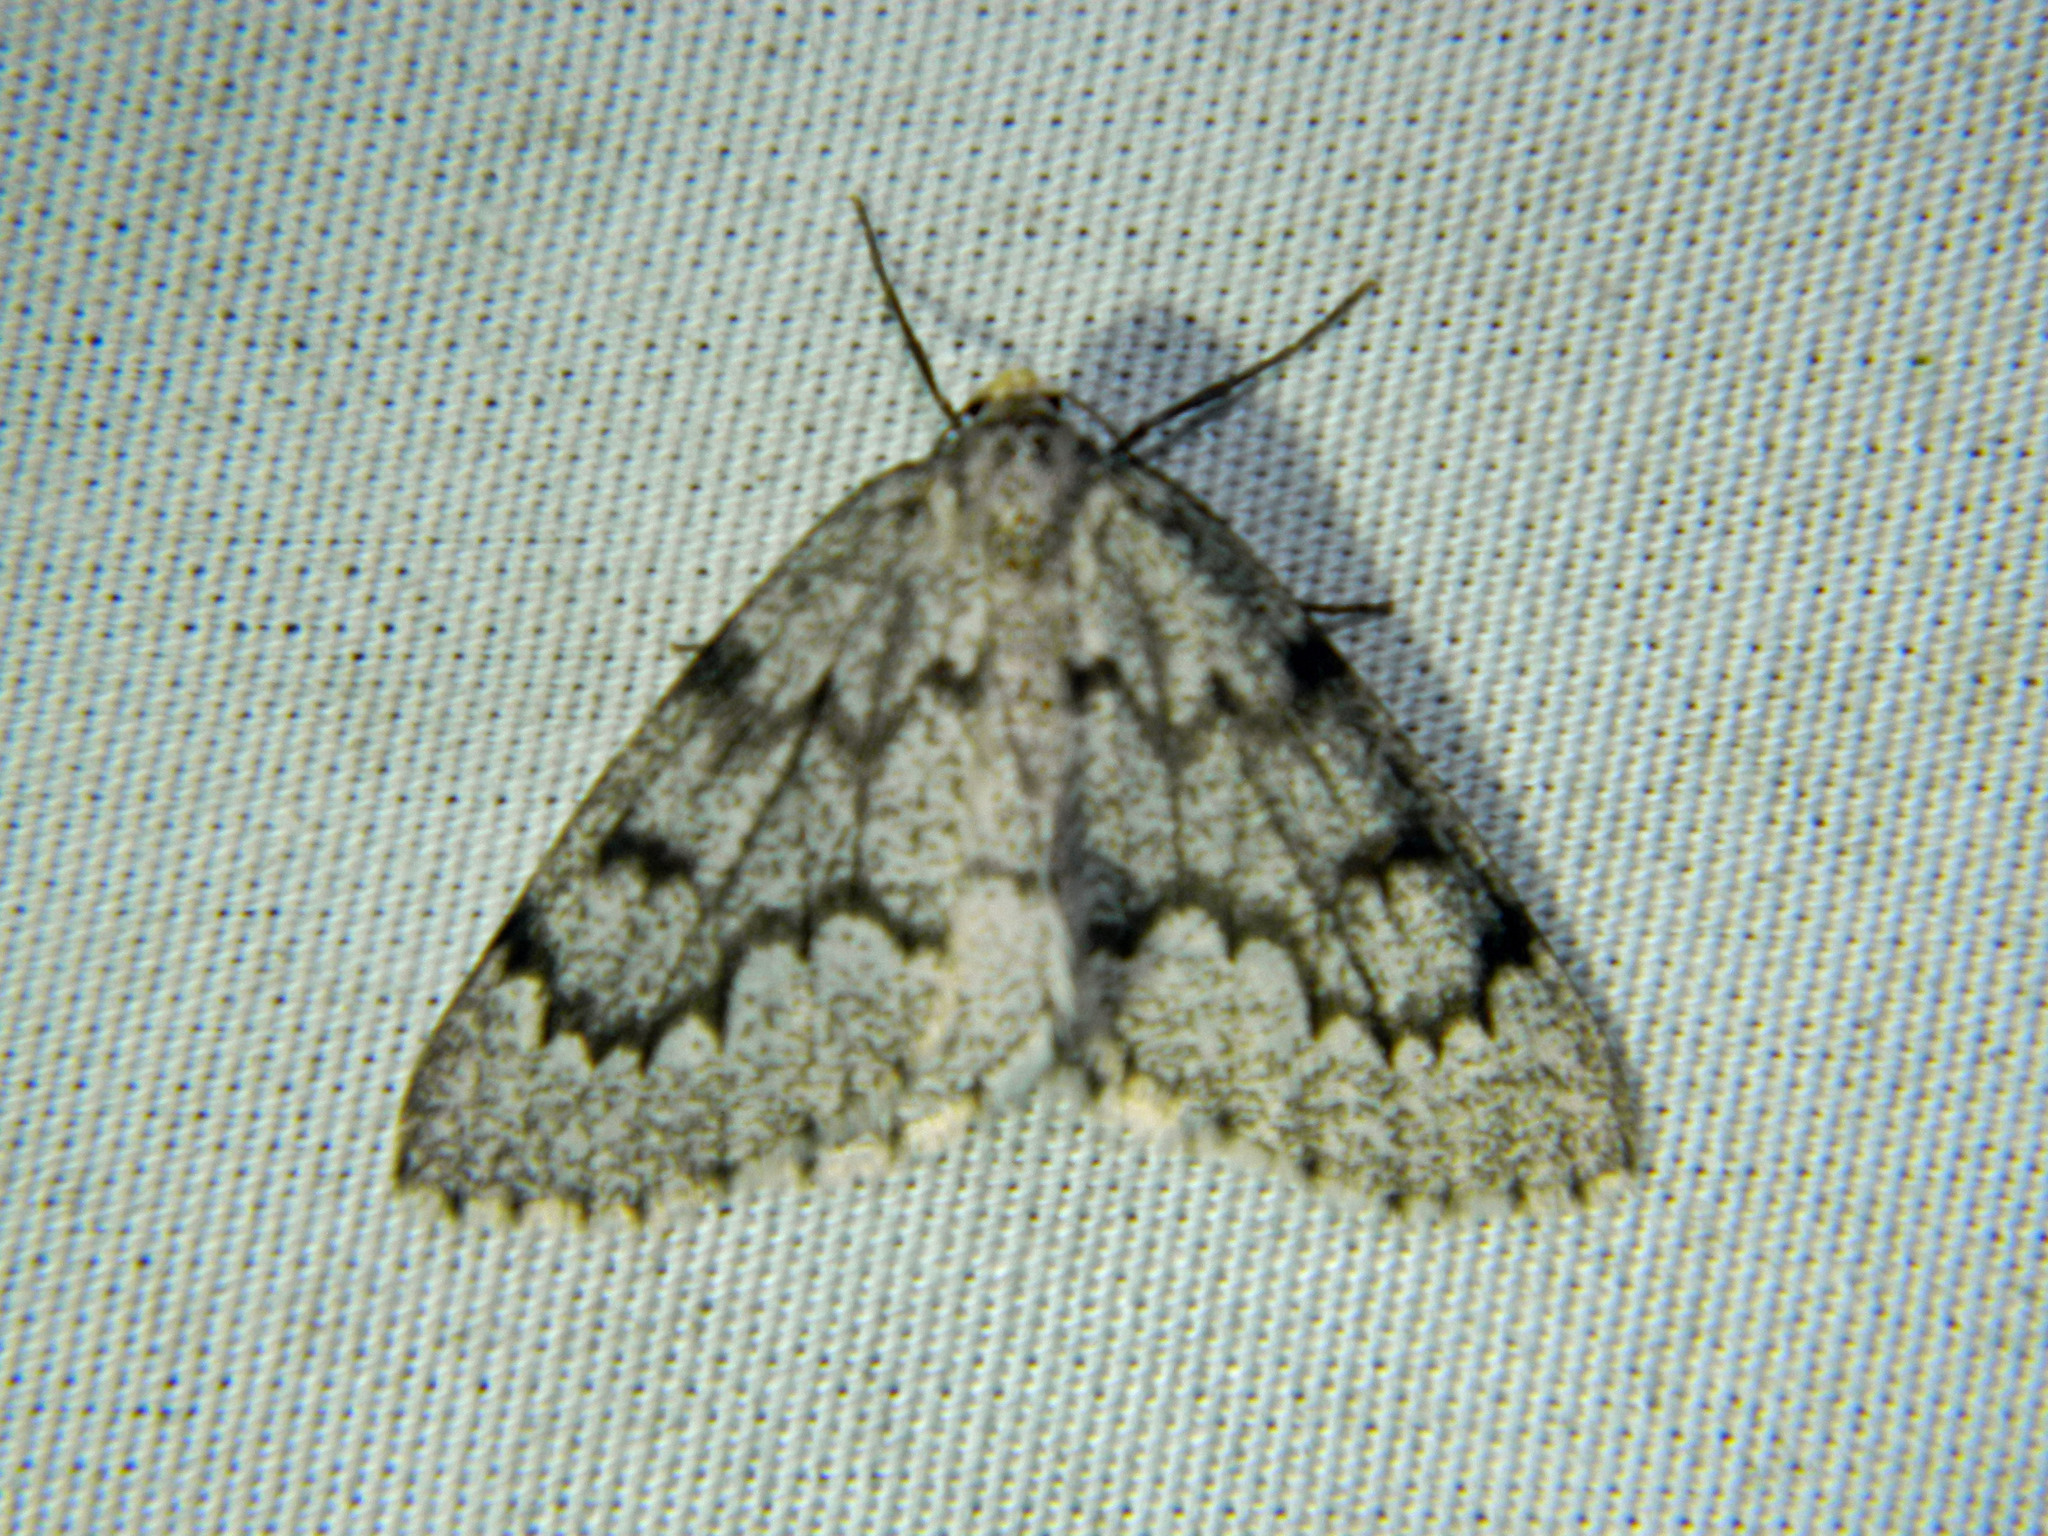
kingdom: Animalia
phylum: Arthropoda
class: Insecta
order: Lepidoptera
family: Geometridae
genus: Nepytia
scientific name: Nepytia canosaria
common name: False hemlock looper
